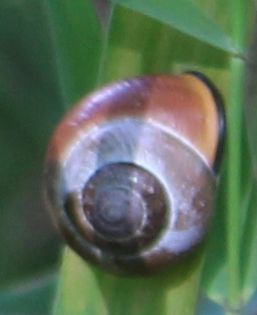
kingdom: Animalia
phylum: Mollusca
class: Gastropoda
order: Stylommatophora
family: Helicidae
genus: Cepaea
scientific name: Cepaea nemoralis
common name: Grovesnail
